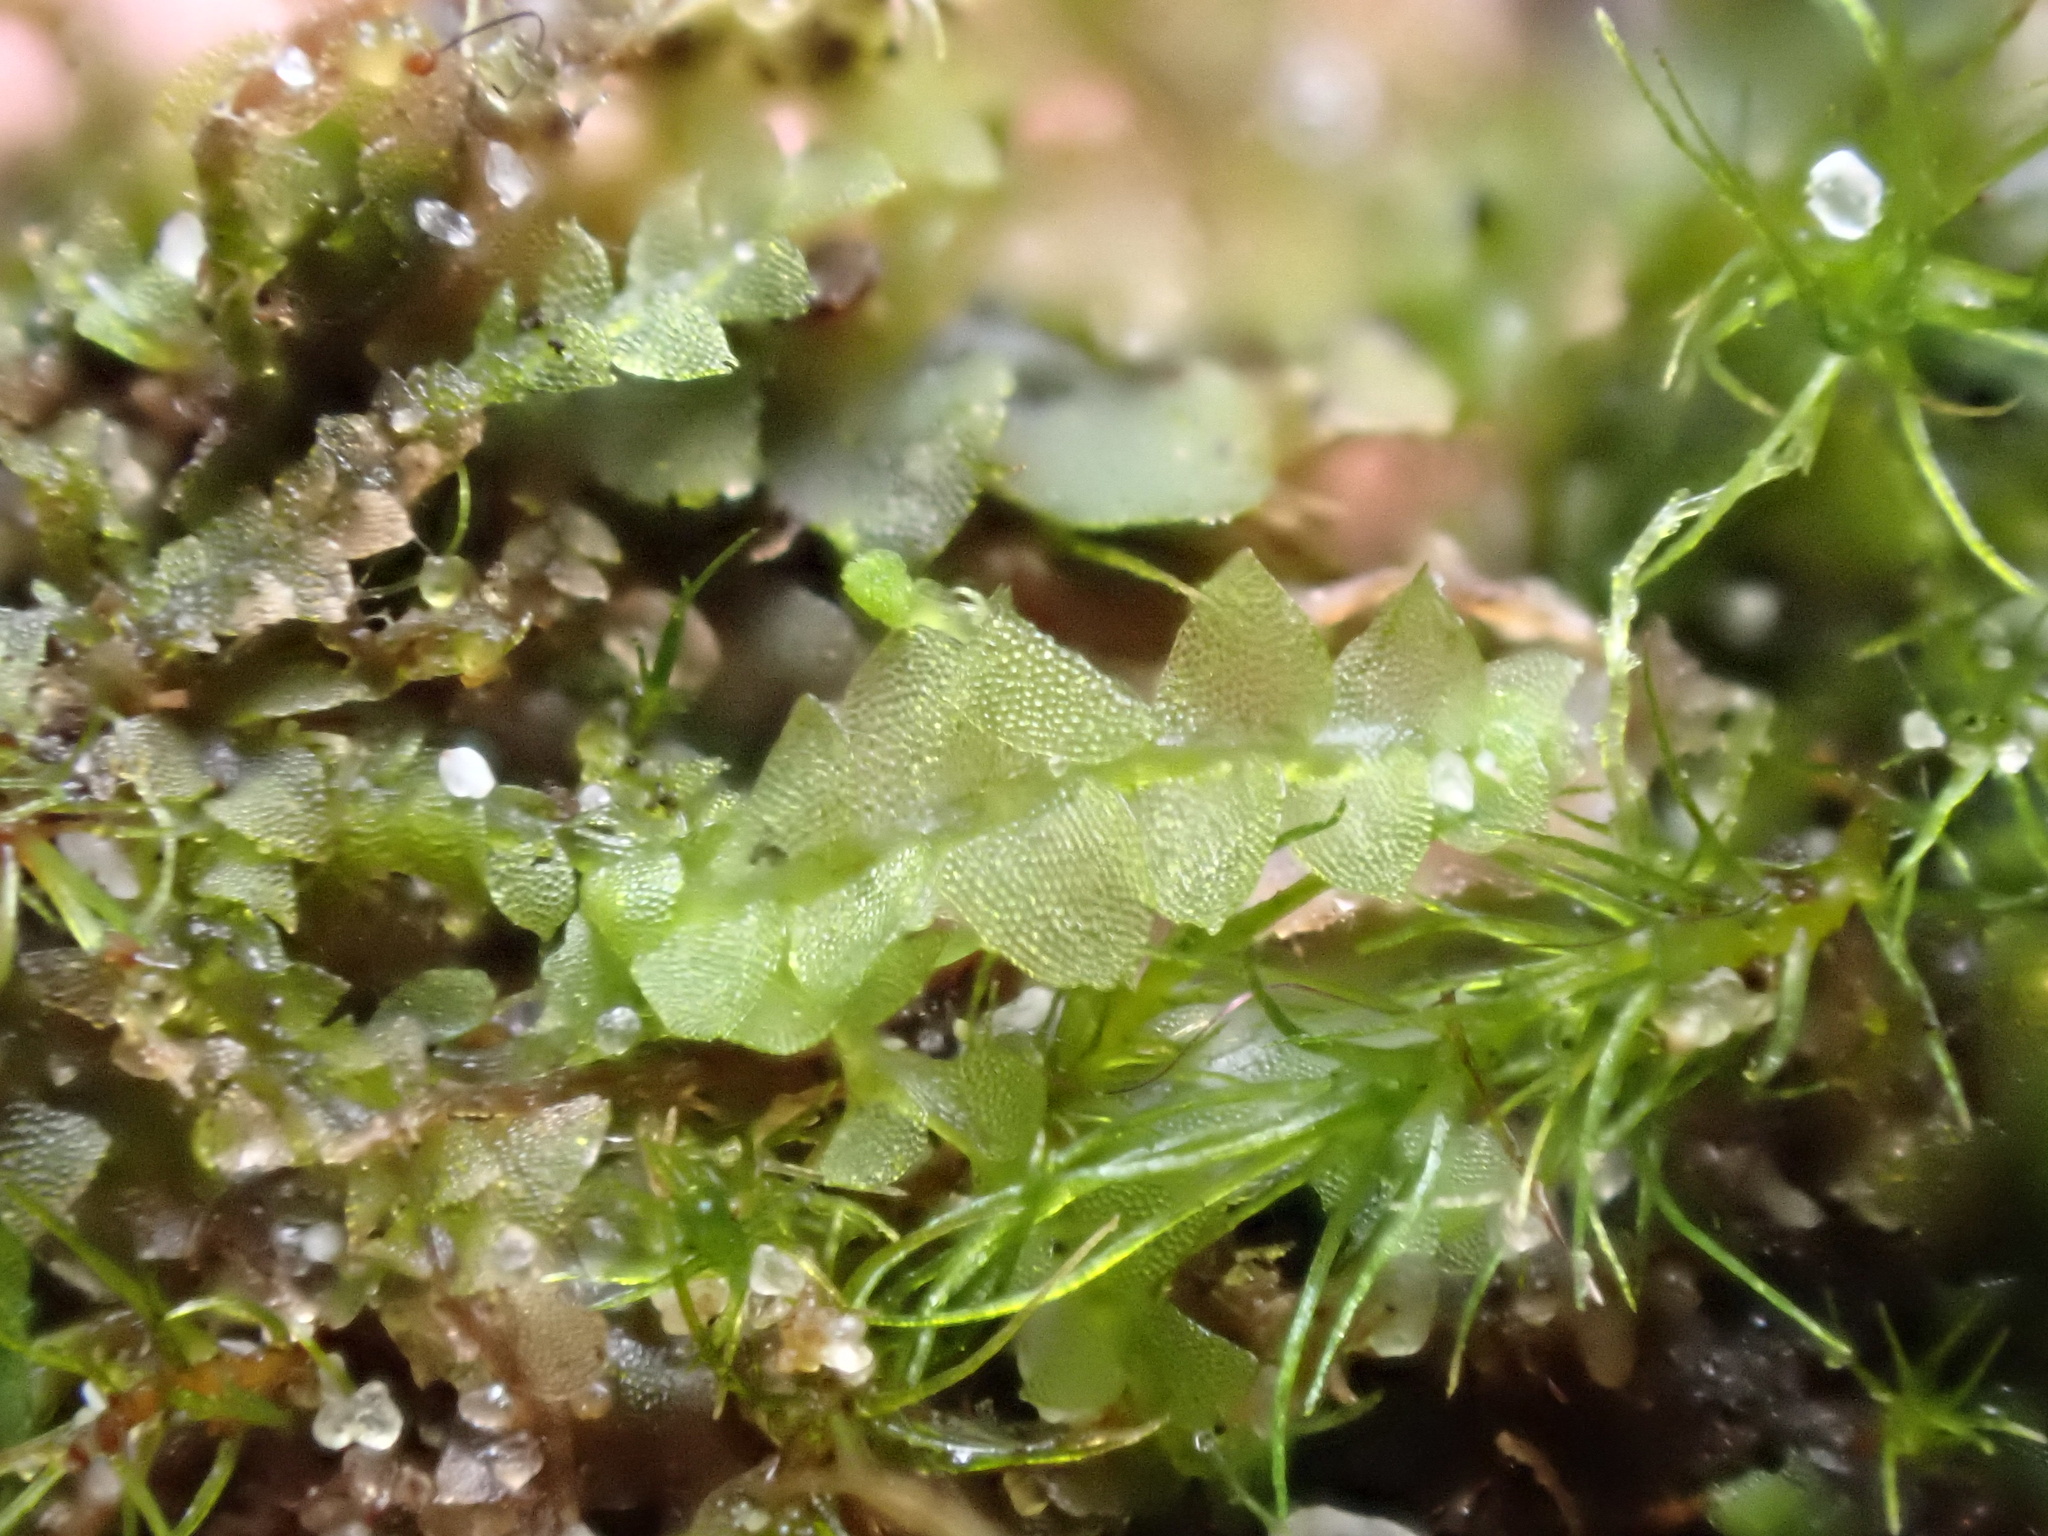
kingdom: Plantae
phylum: Marchantiophyta
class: Jungermanniopsida
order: Jungermanniales
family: Calypogeiaceae
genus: Calypogeia
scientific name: Calypogeia fissa
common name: Common pouchwort
